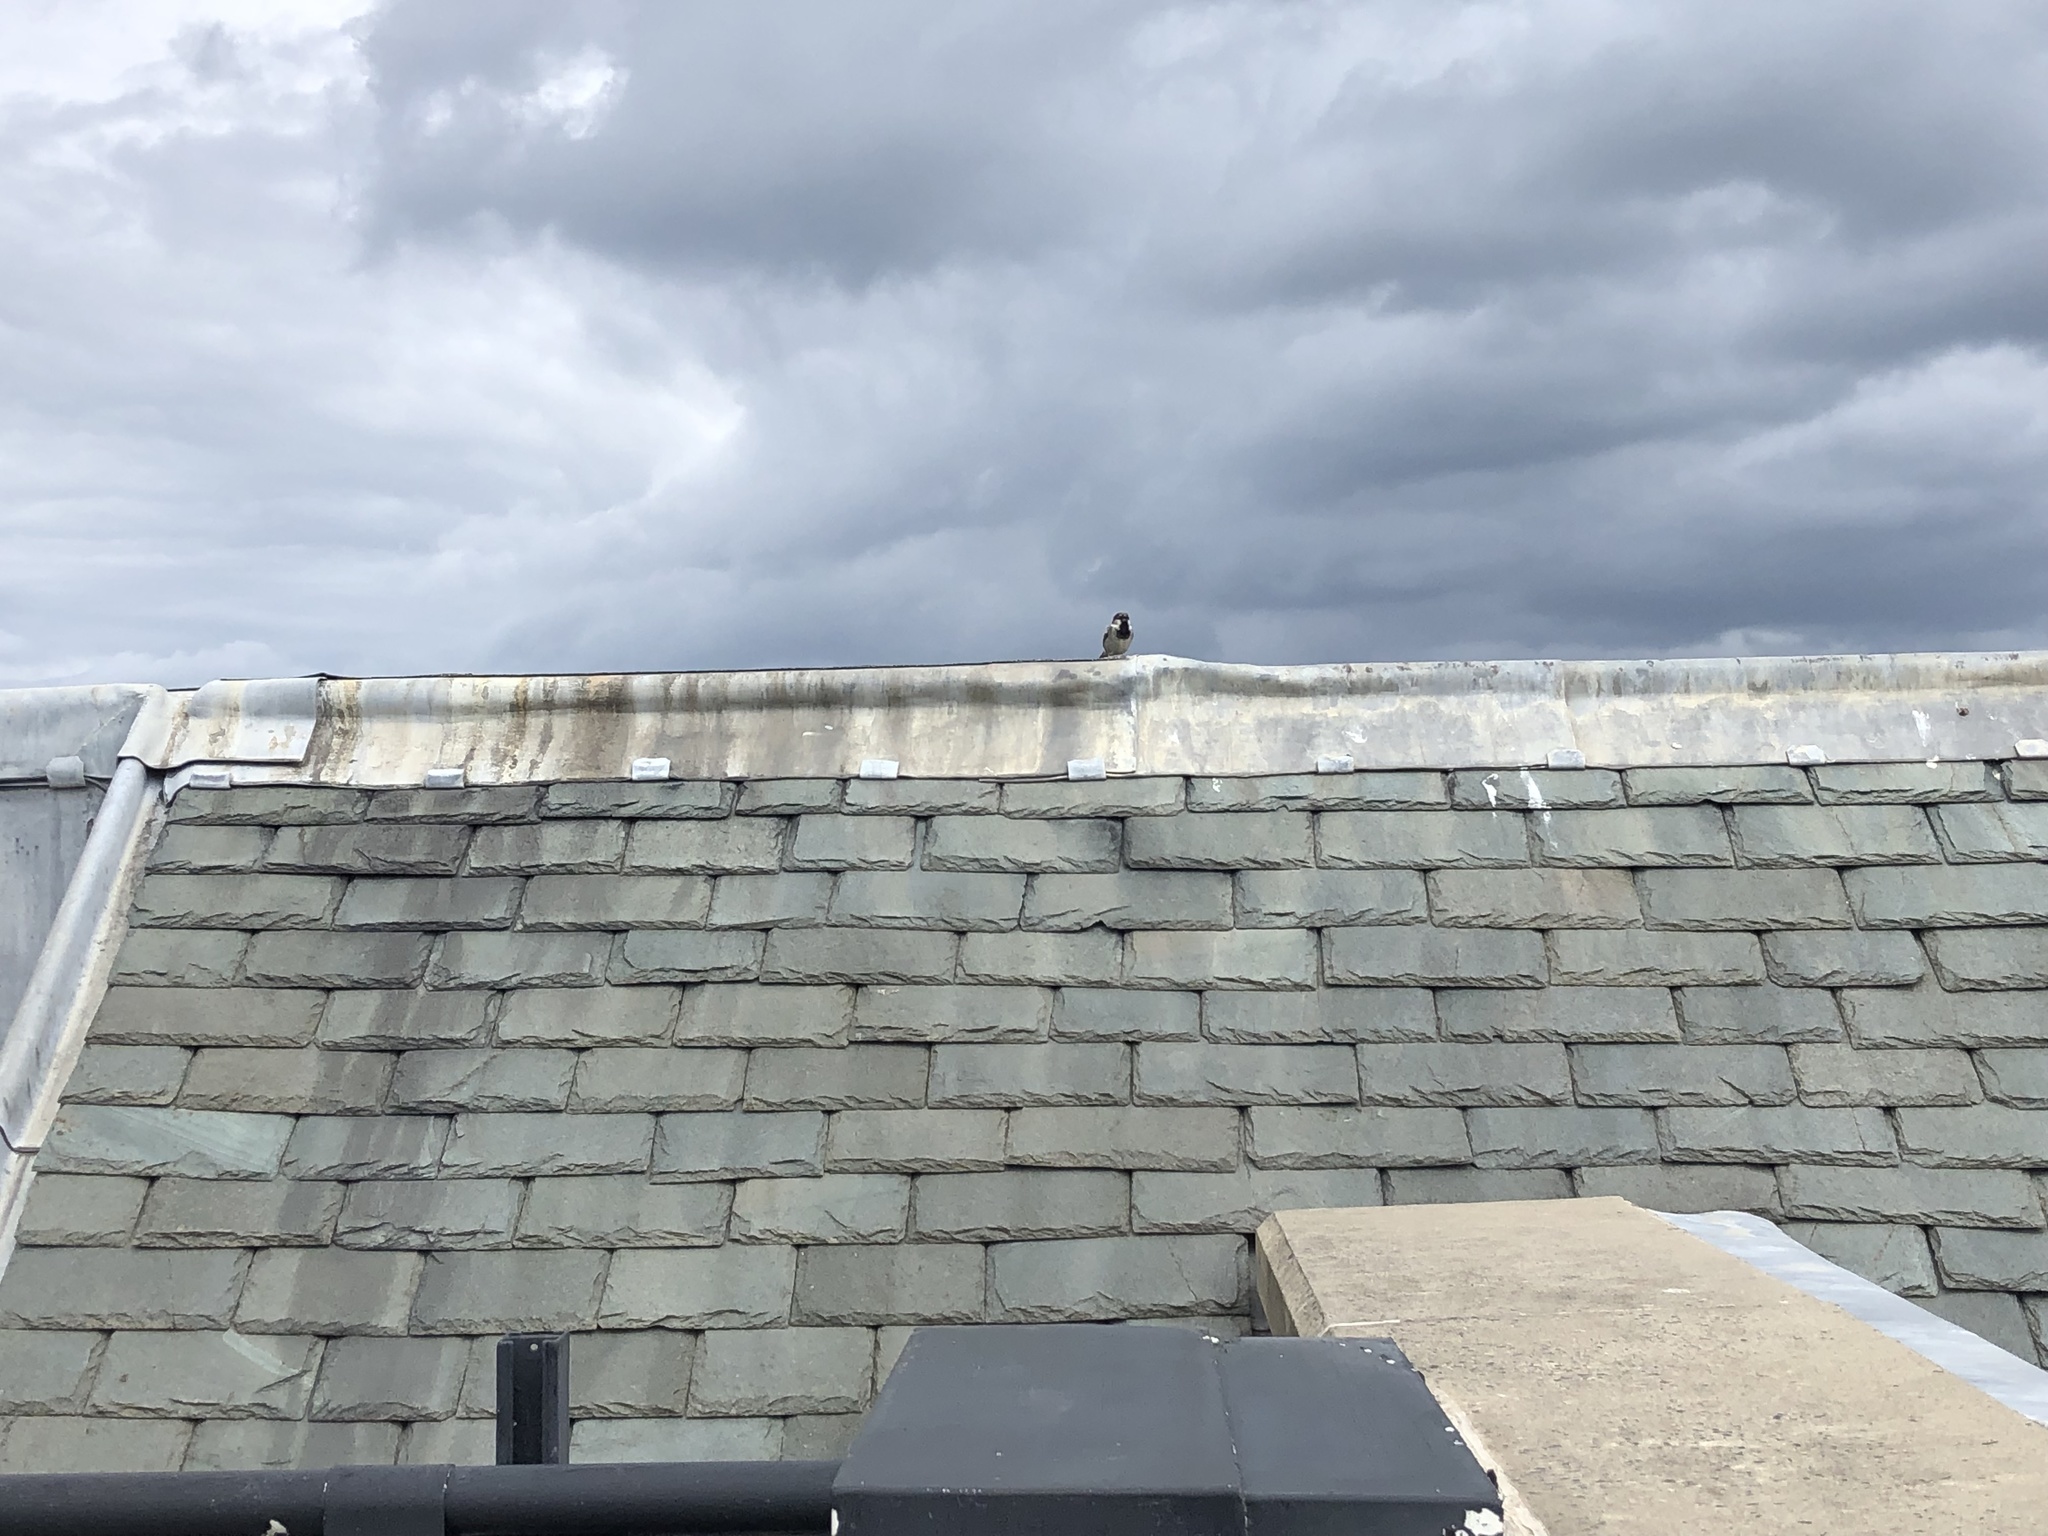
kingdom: Animalia
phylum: Chordata
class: Aves
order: Passeriformes
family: Passeridae
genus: Passer
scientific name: Passer domesticus
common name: House sparrow
